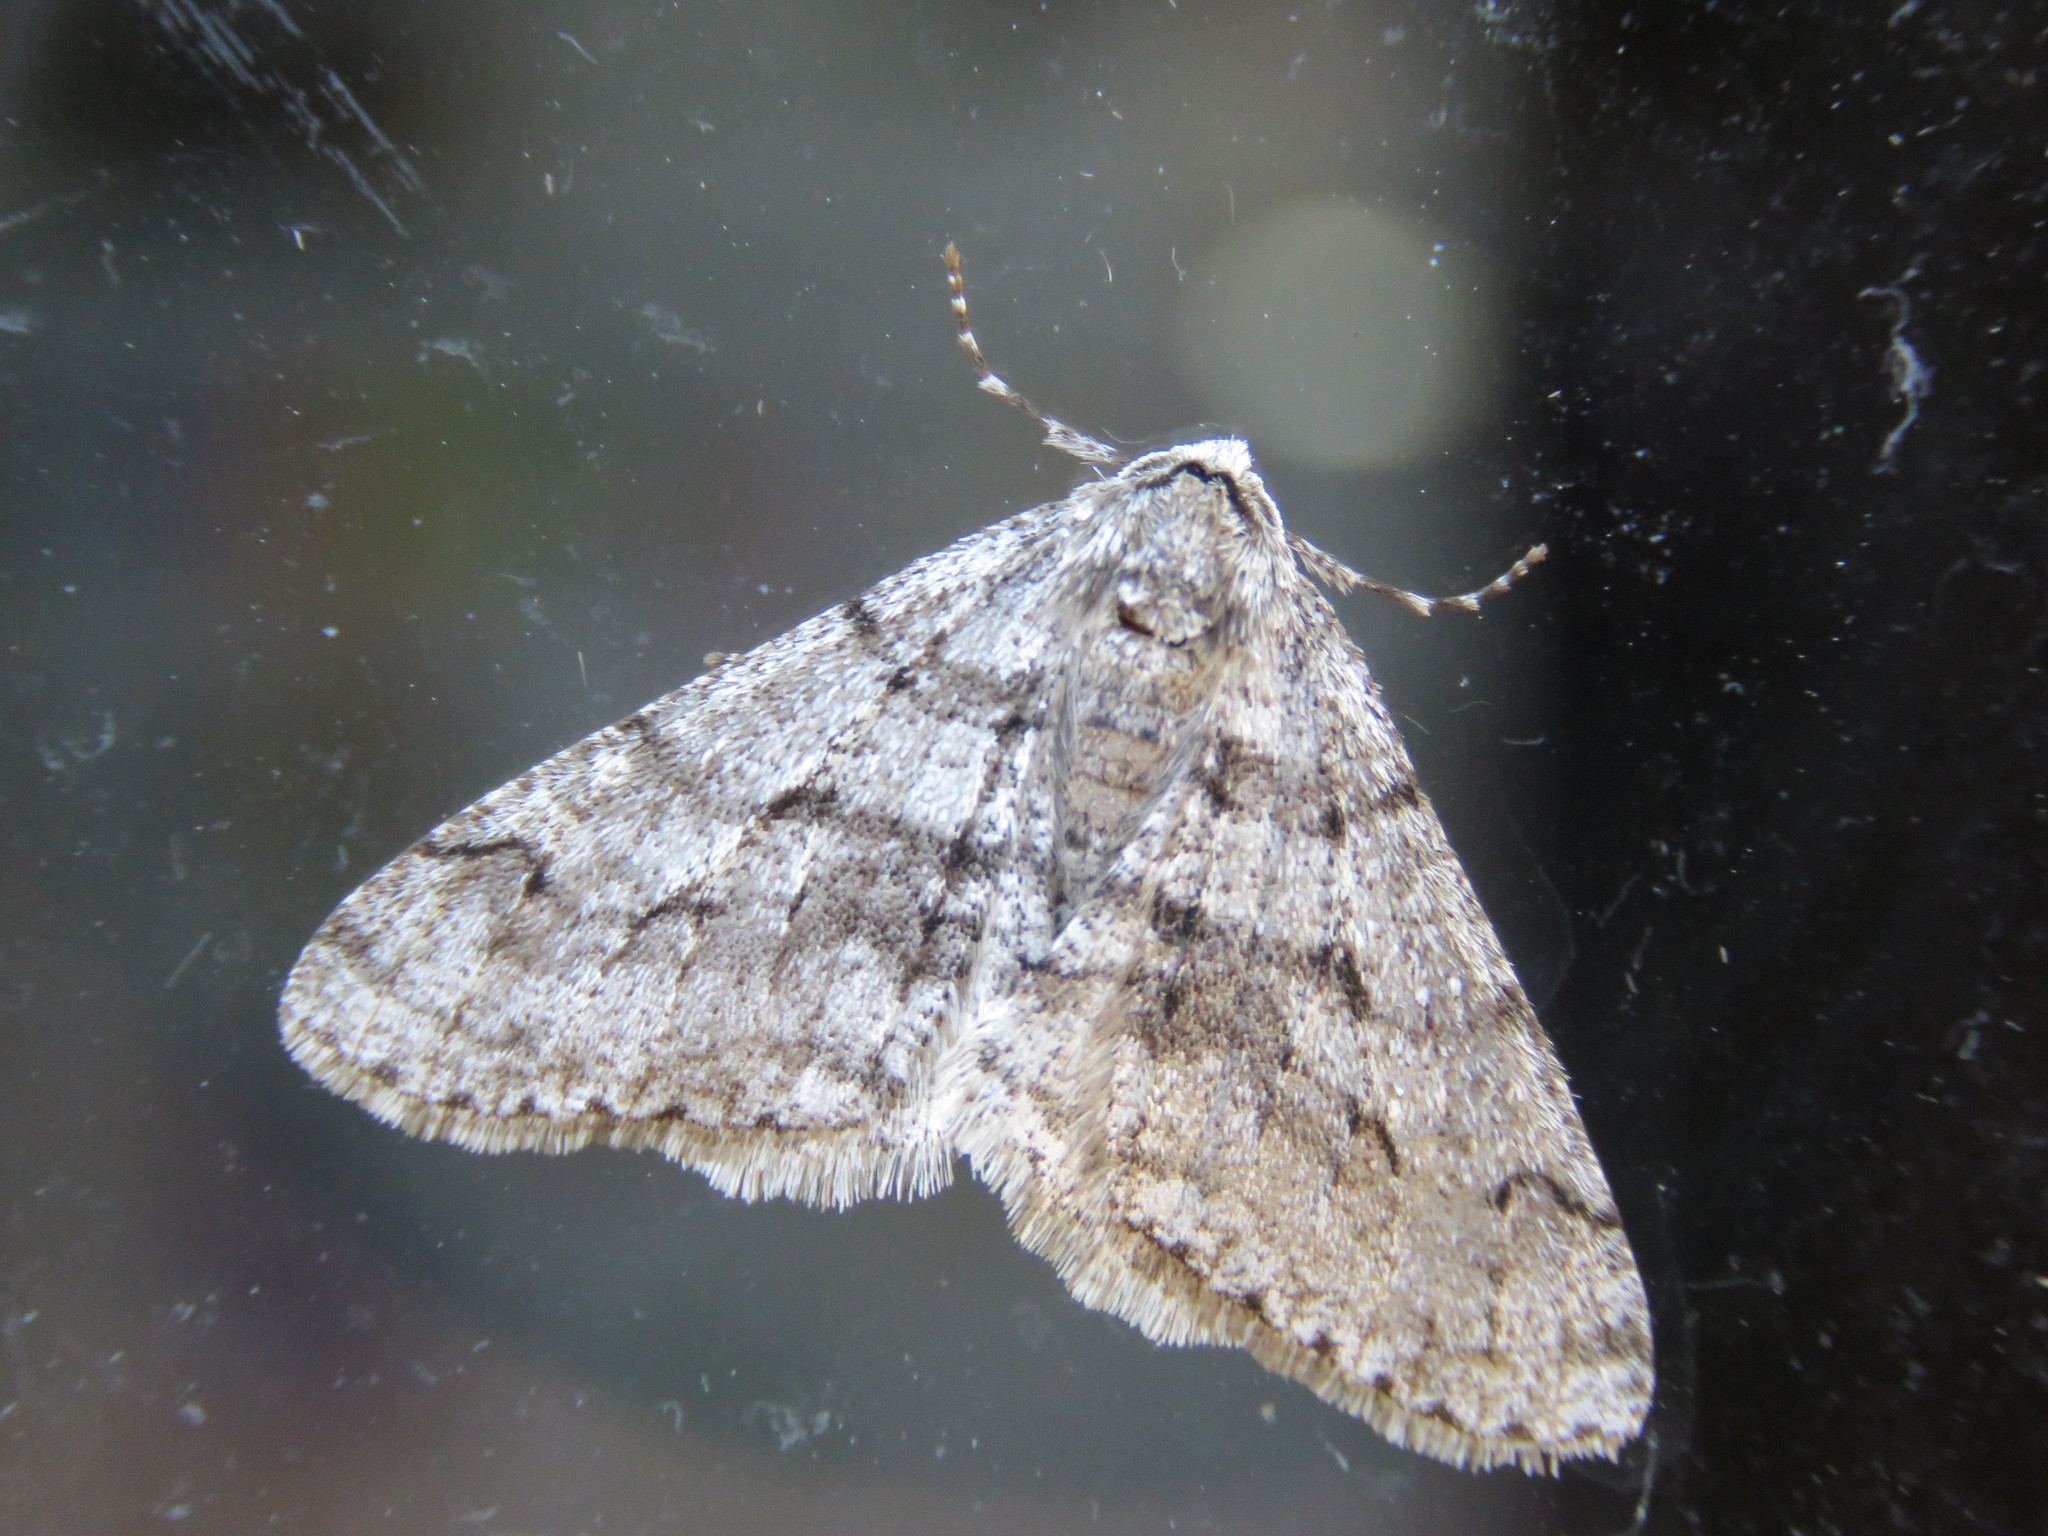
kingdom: Animalia
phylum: Arthropoda
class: Insecta
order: Lepidoptera
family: Geometridae
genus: Phigalia
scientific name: Phigalia titea
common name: Spiny looper
